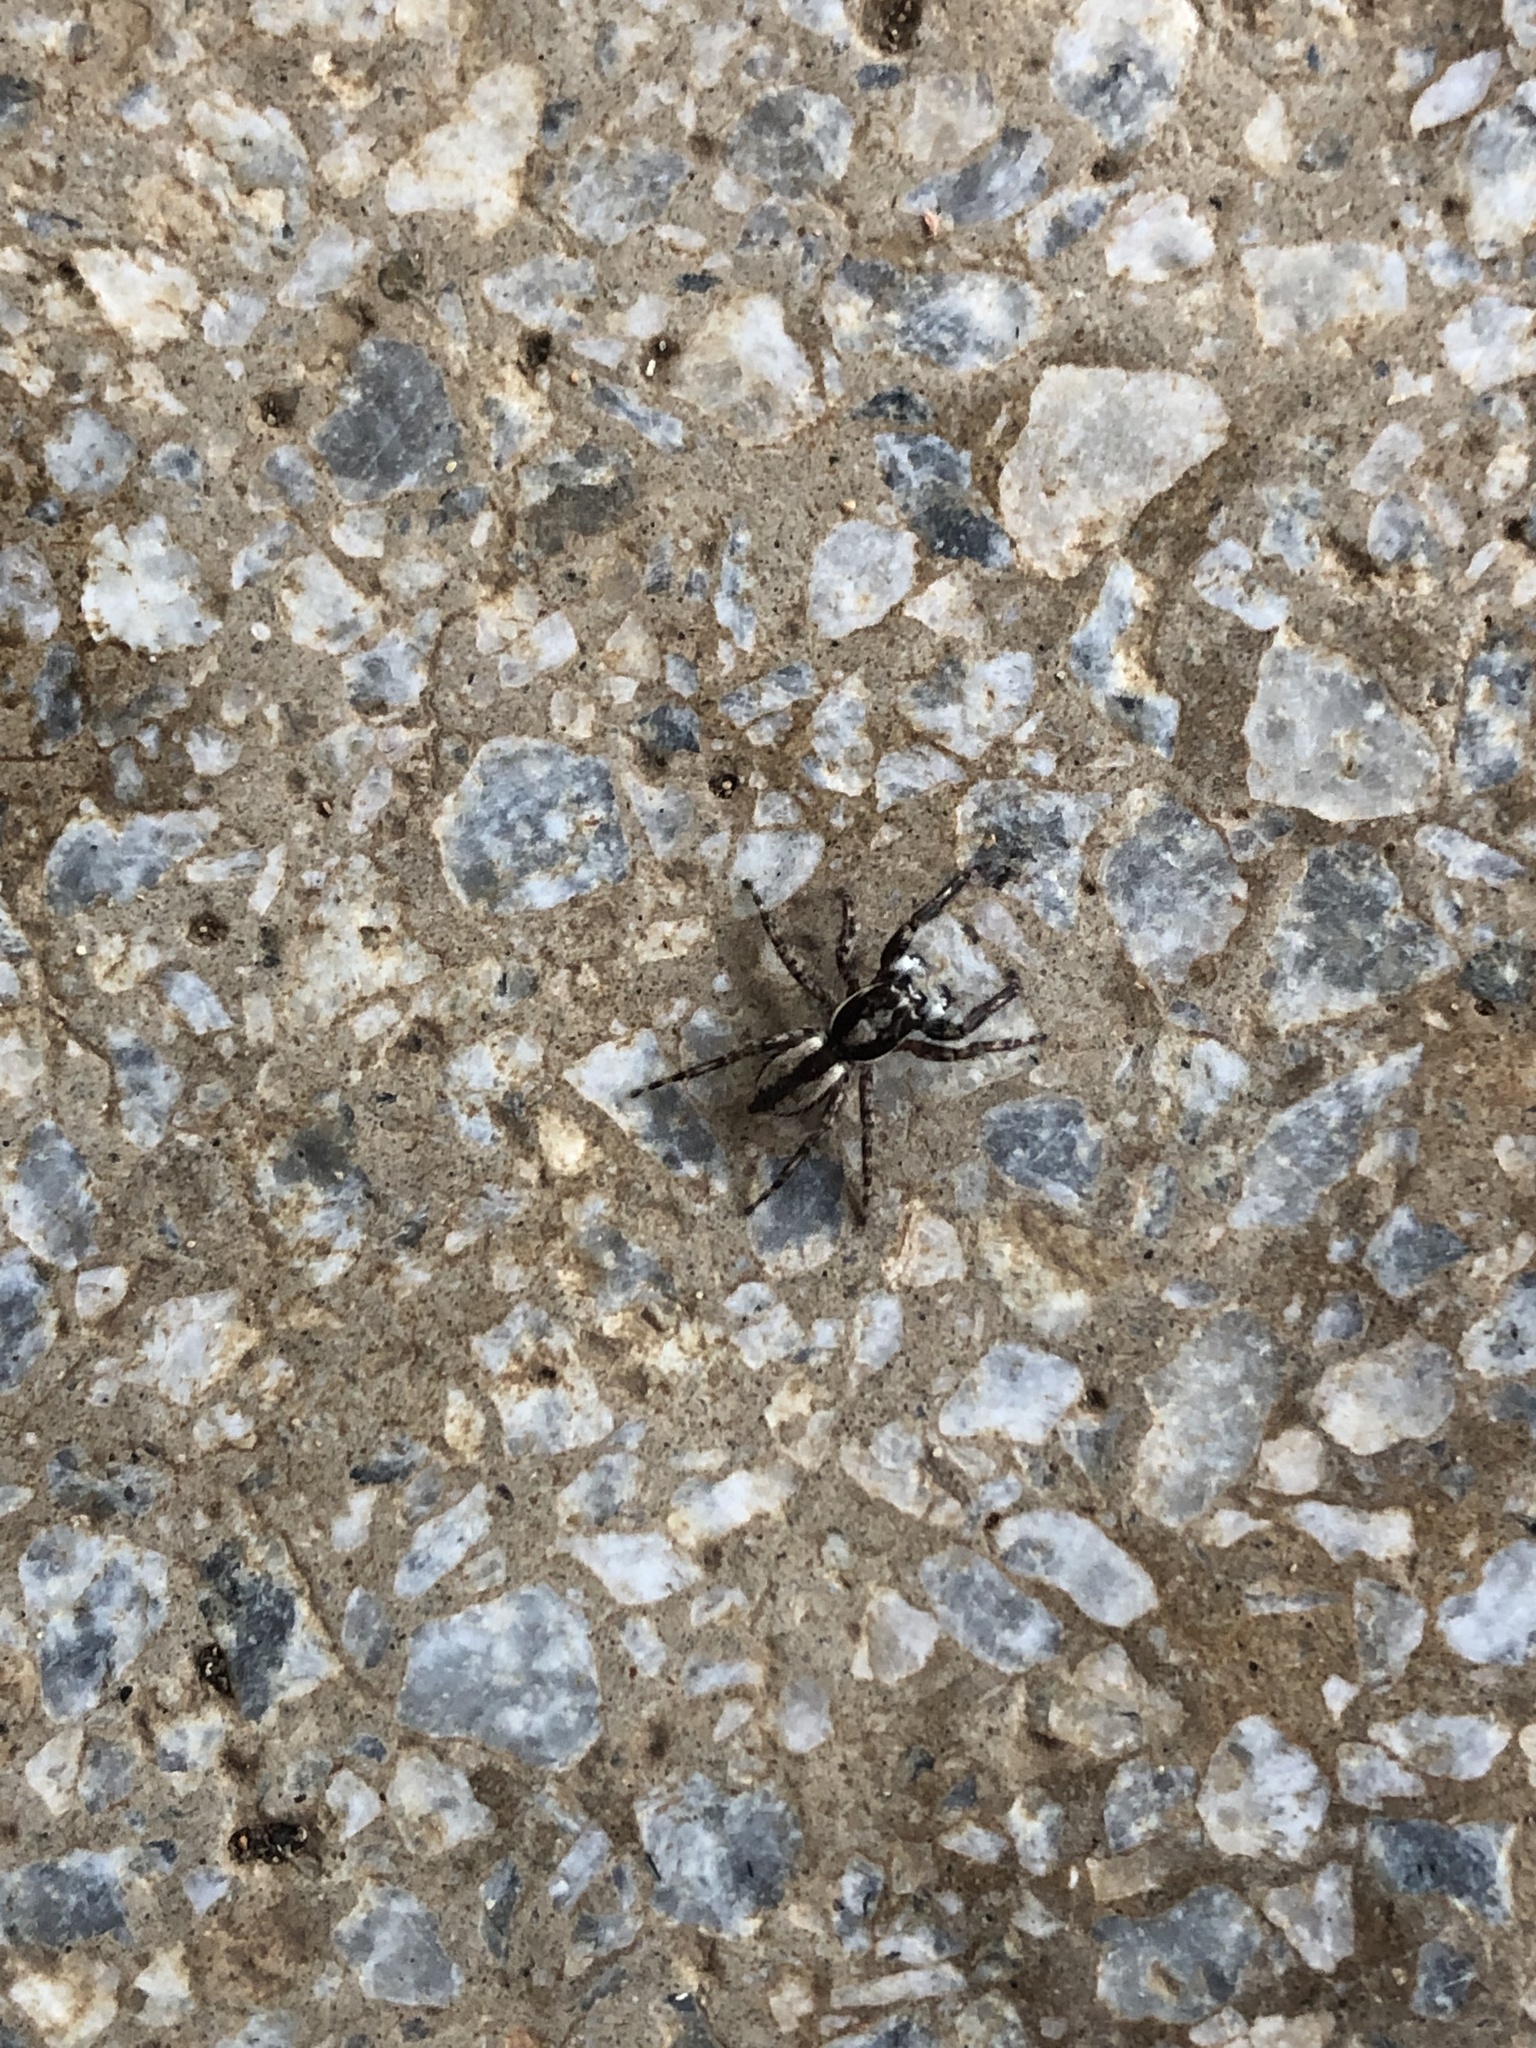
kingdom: Animalia
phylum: Arthropoda
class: Arachnida
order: Araneae
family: Salticidae
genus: Menemerus
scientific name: Menemerus bivittatus
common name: Gray wall jumper
